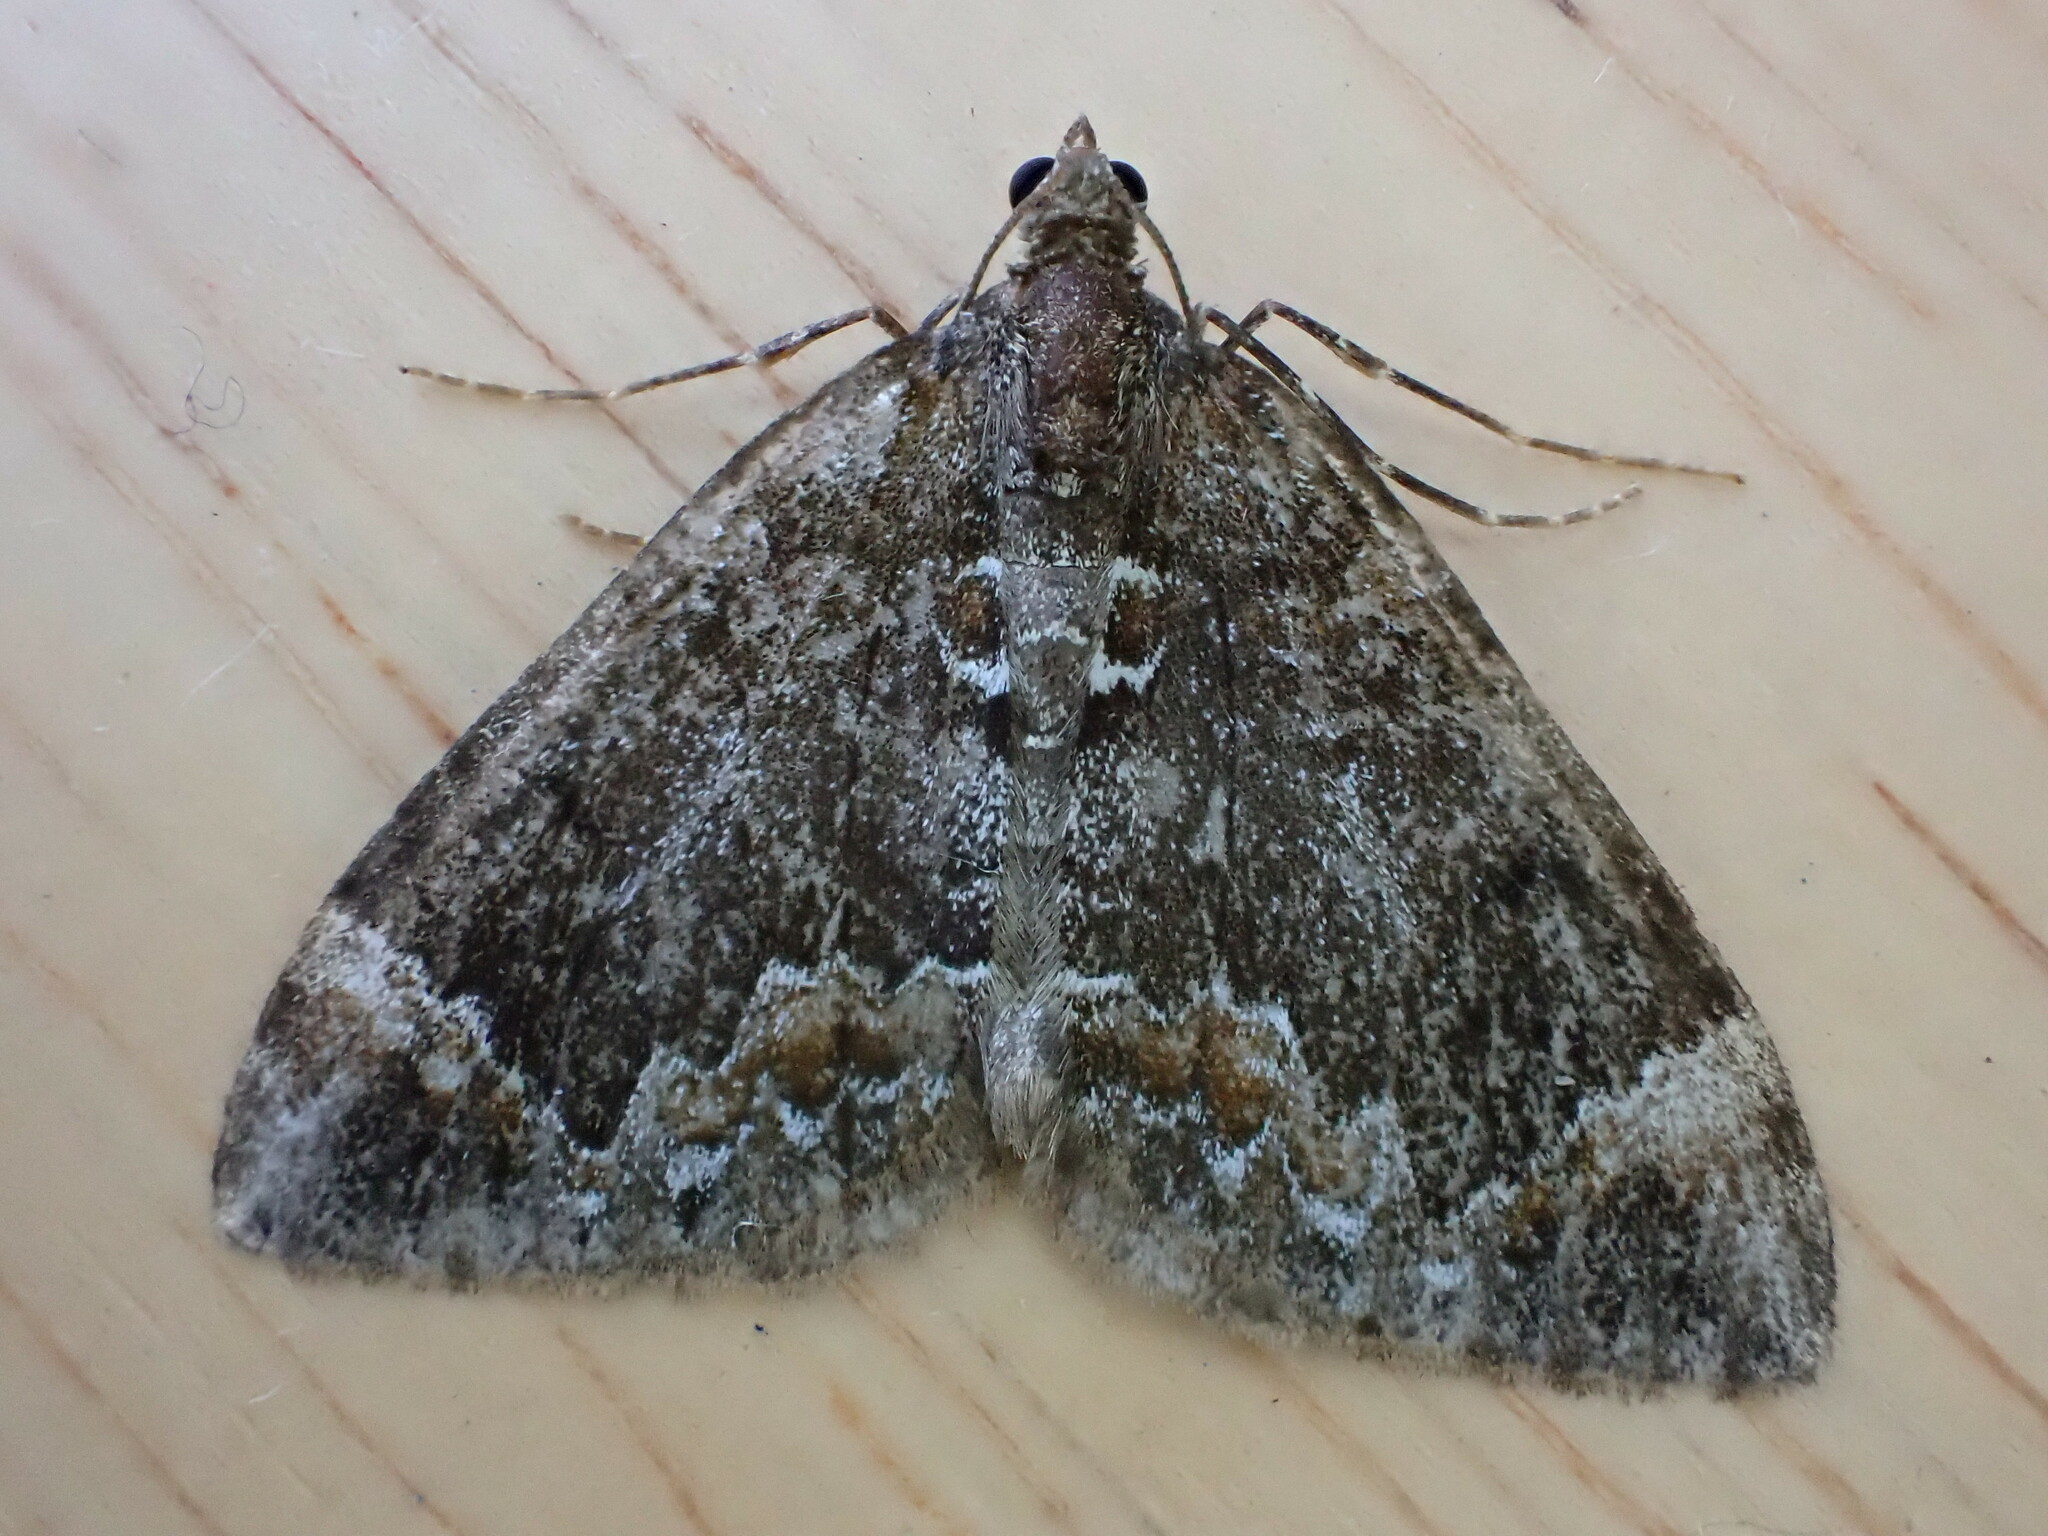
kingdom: Animalia
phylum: Arthropoda
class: Insecta
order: Lepidoptera
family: Geometridae
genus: Dysstroma
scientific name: Dysstroma truncata
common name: Common marbled carpet
